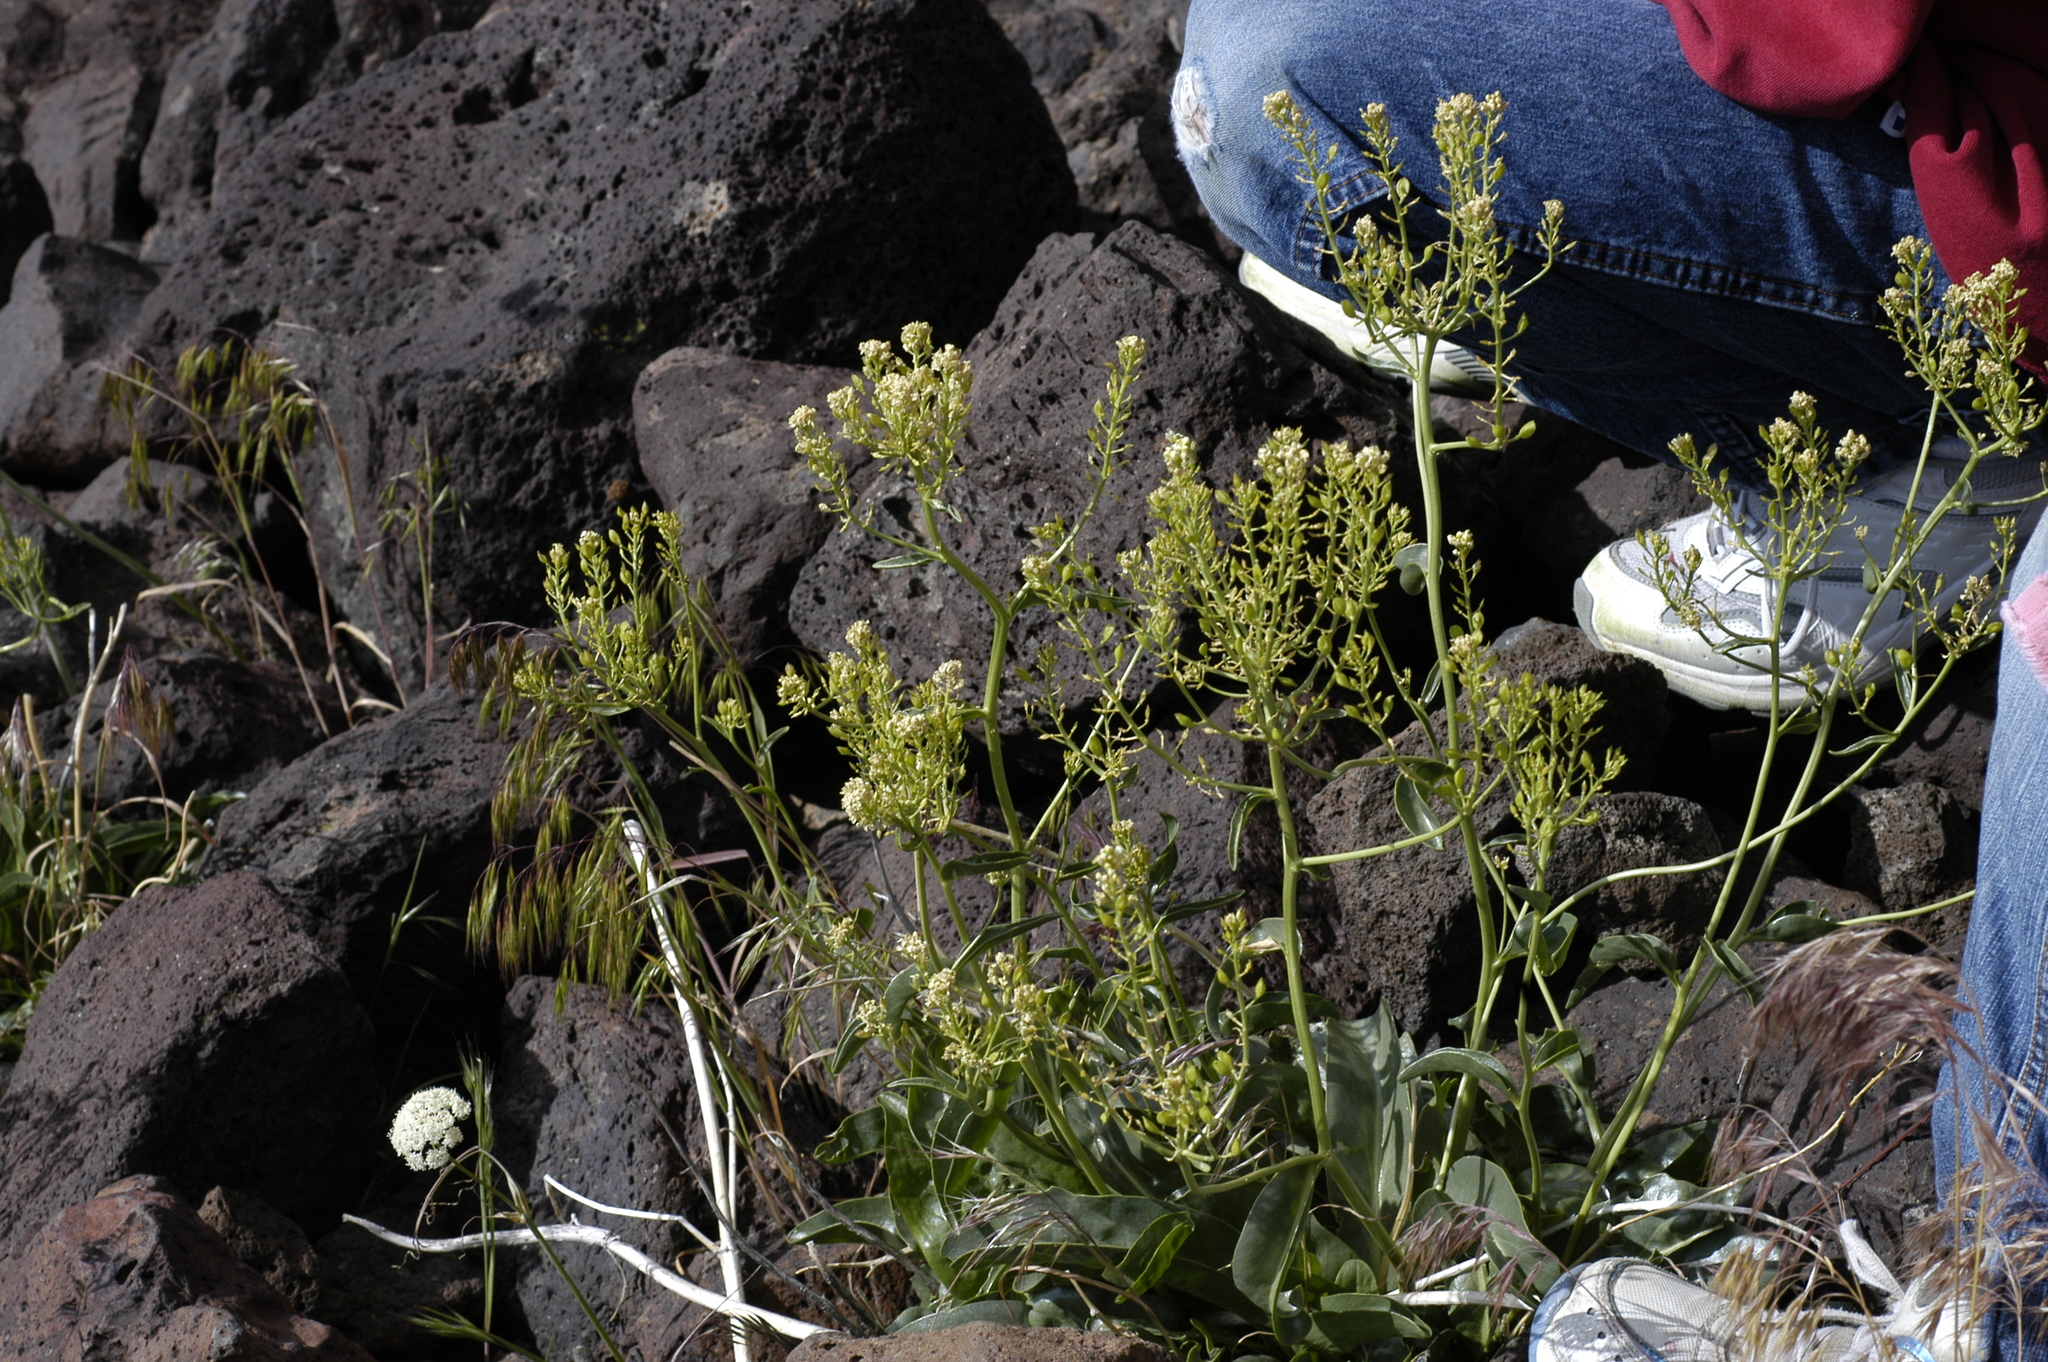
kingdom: Plantae
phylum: Tracheophyta
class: Magnoliopsida
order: Brassicales
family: Brassicaceae
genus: Lepidium
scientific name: Lepidium tiehmii
